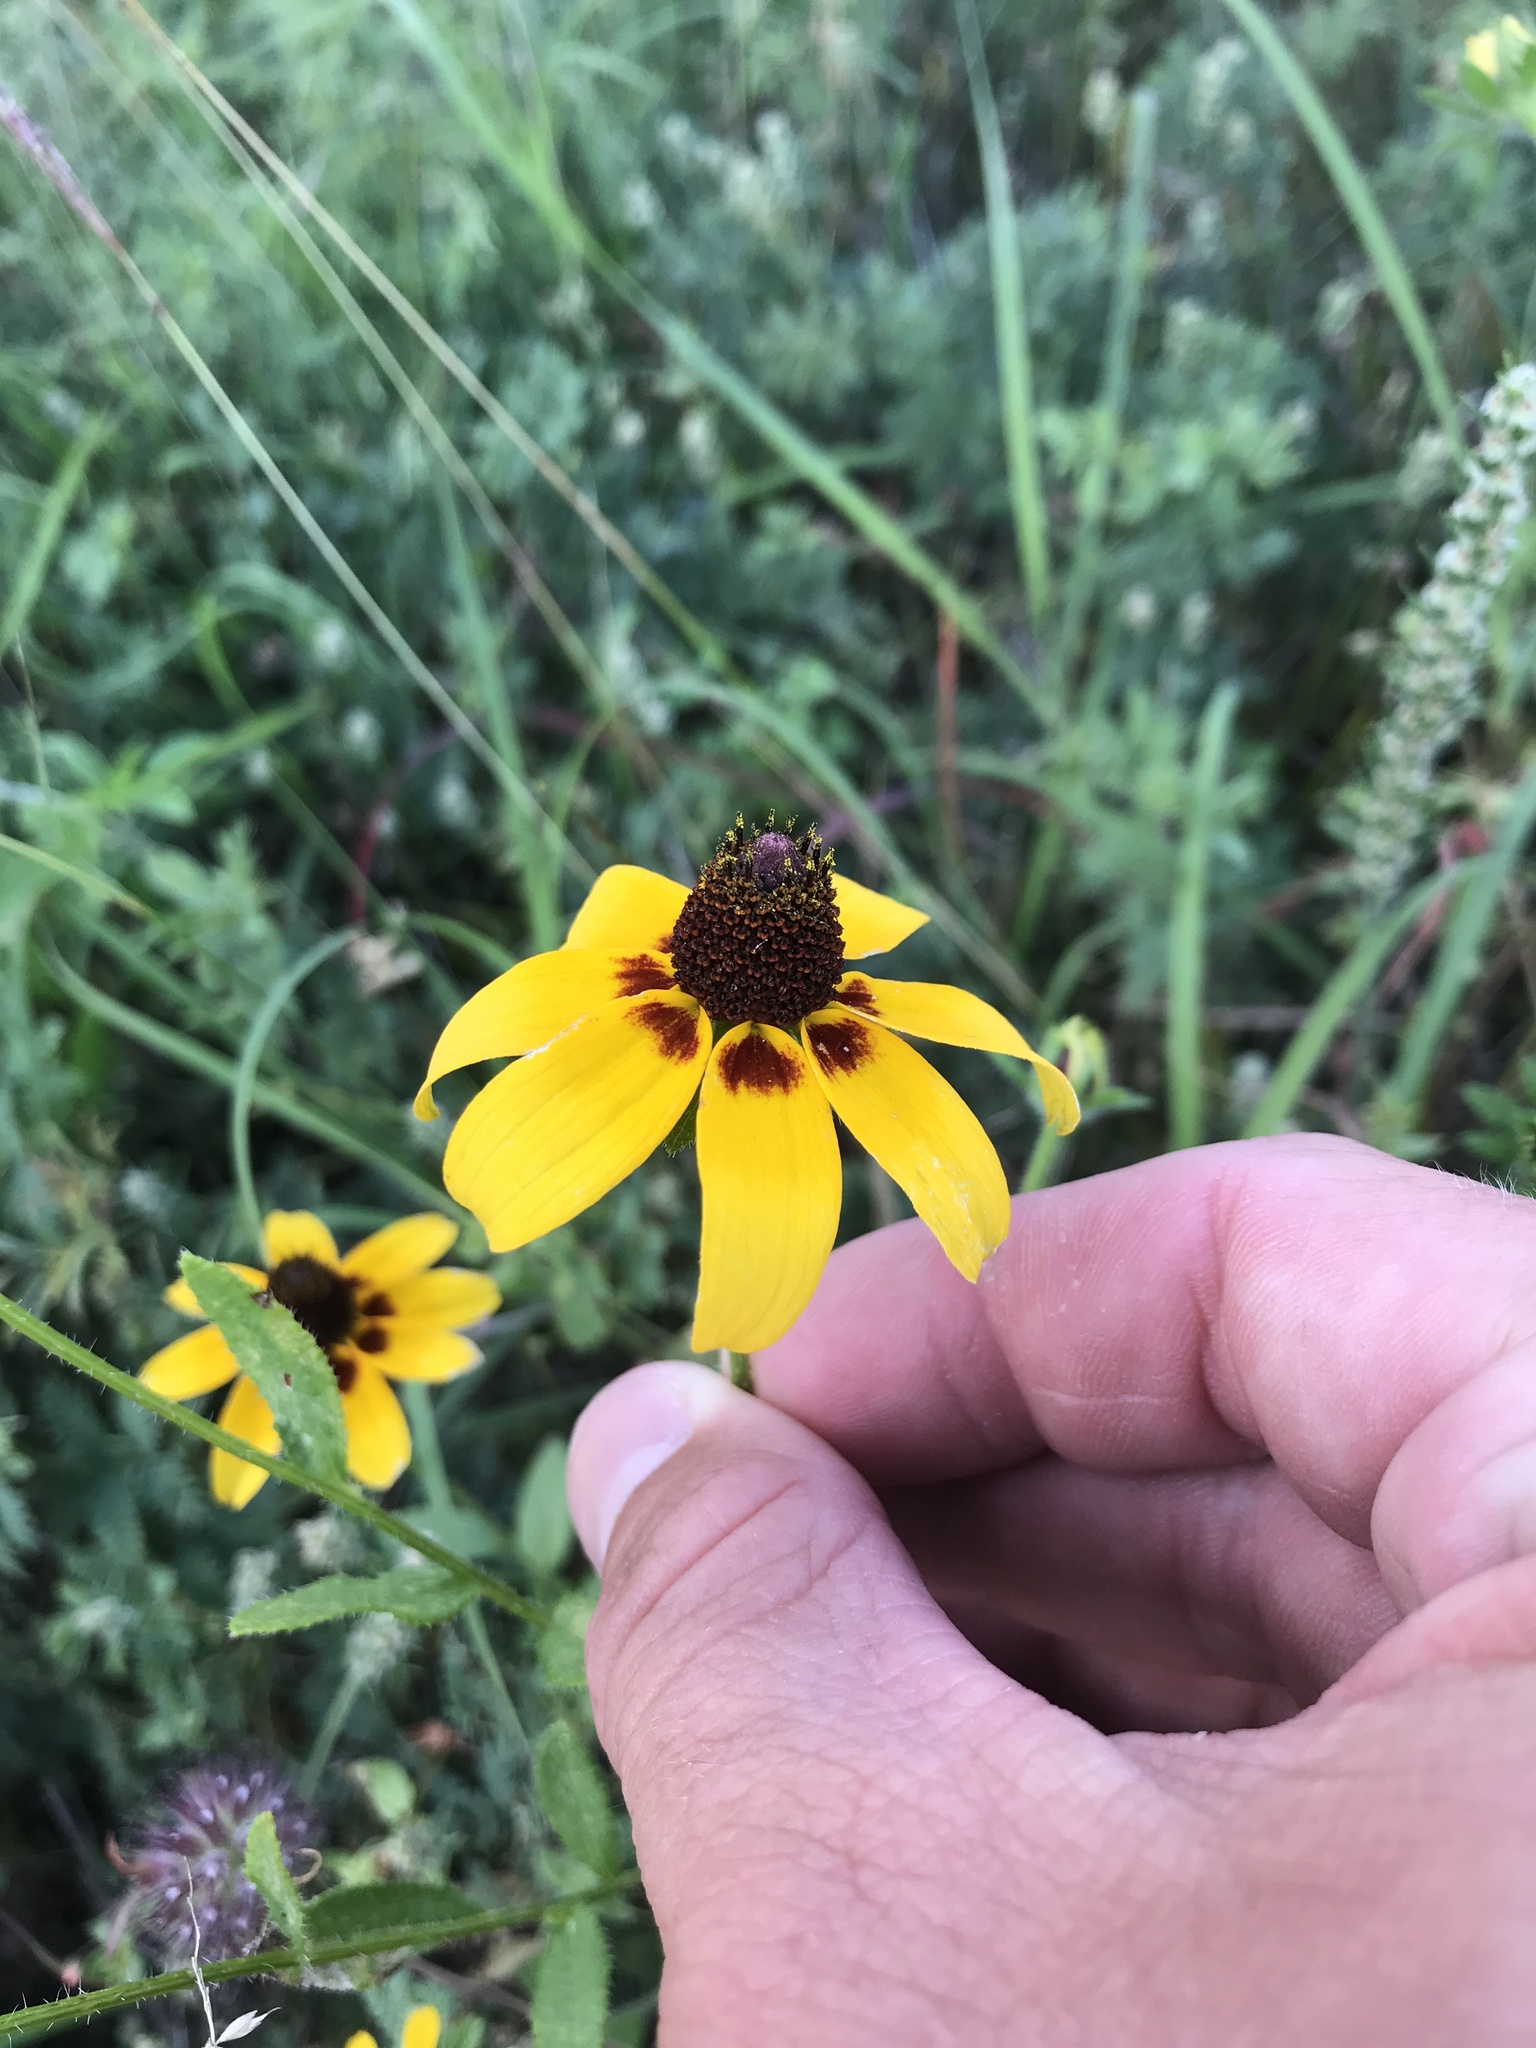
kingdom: Plantae
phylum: Tracheophyta
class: Magnoliopsida
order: Asterales
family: Asteraceae
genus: Rudbeckia
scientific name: Rudbeckia hirta
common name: Black-eyed-susan
